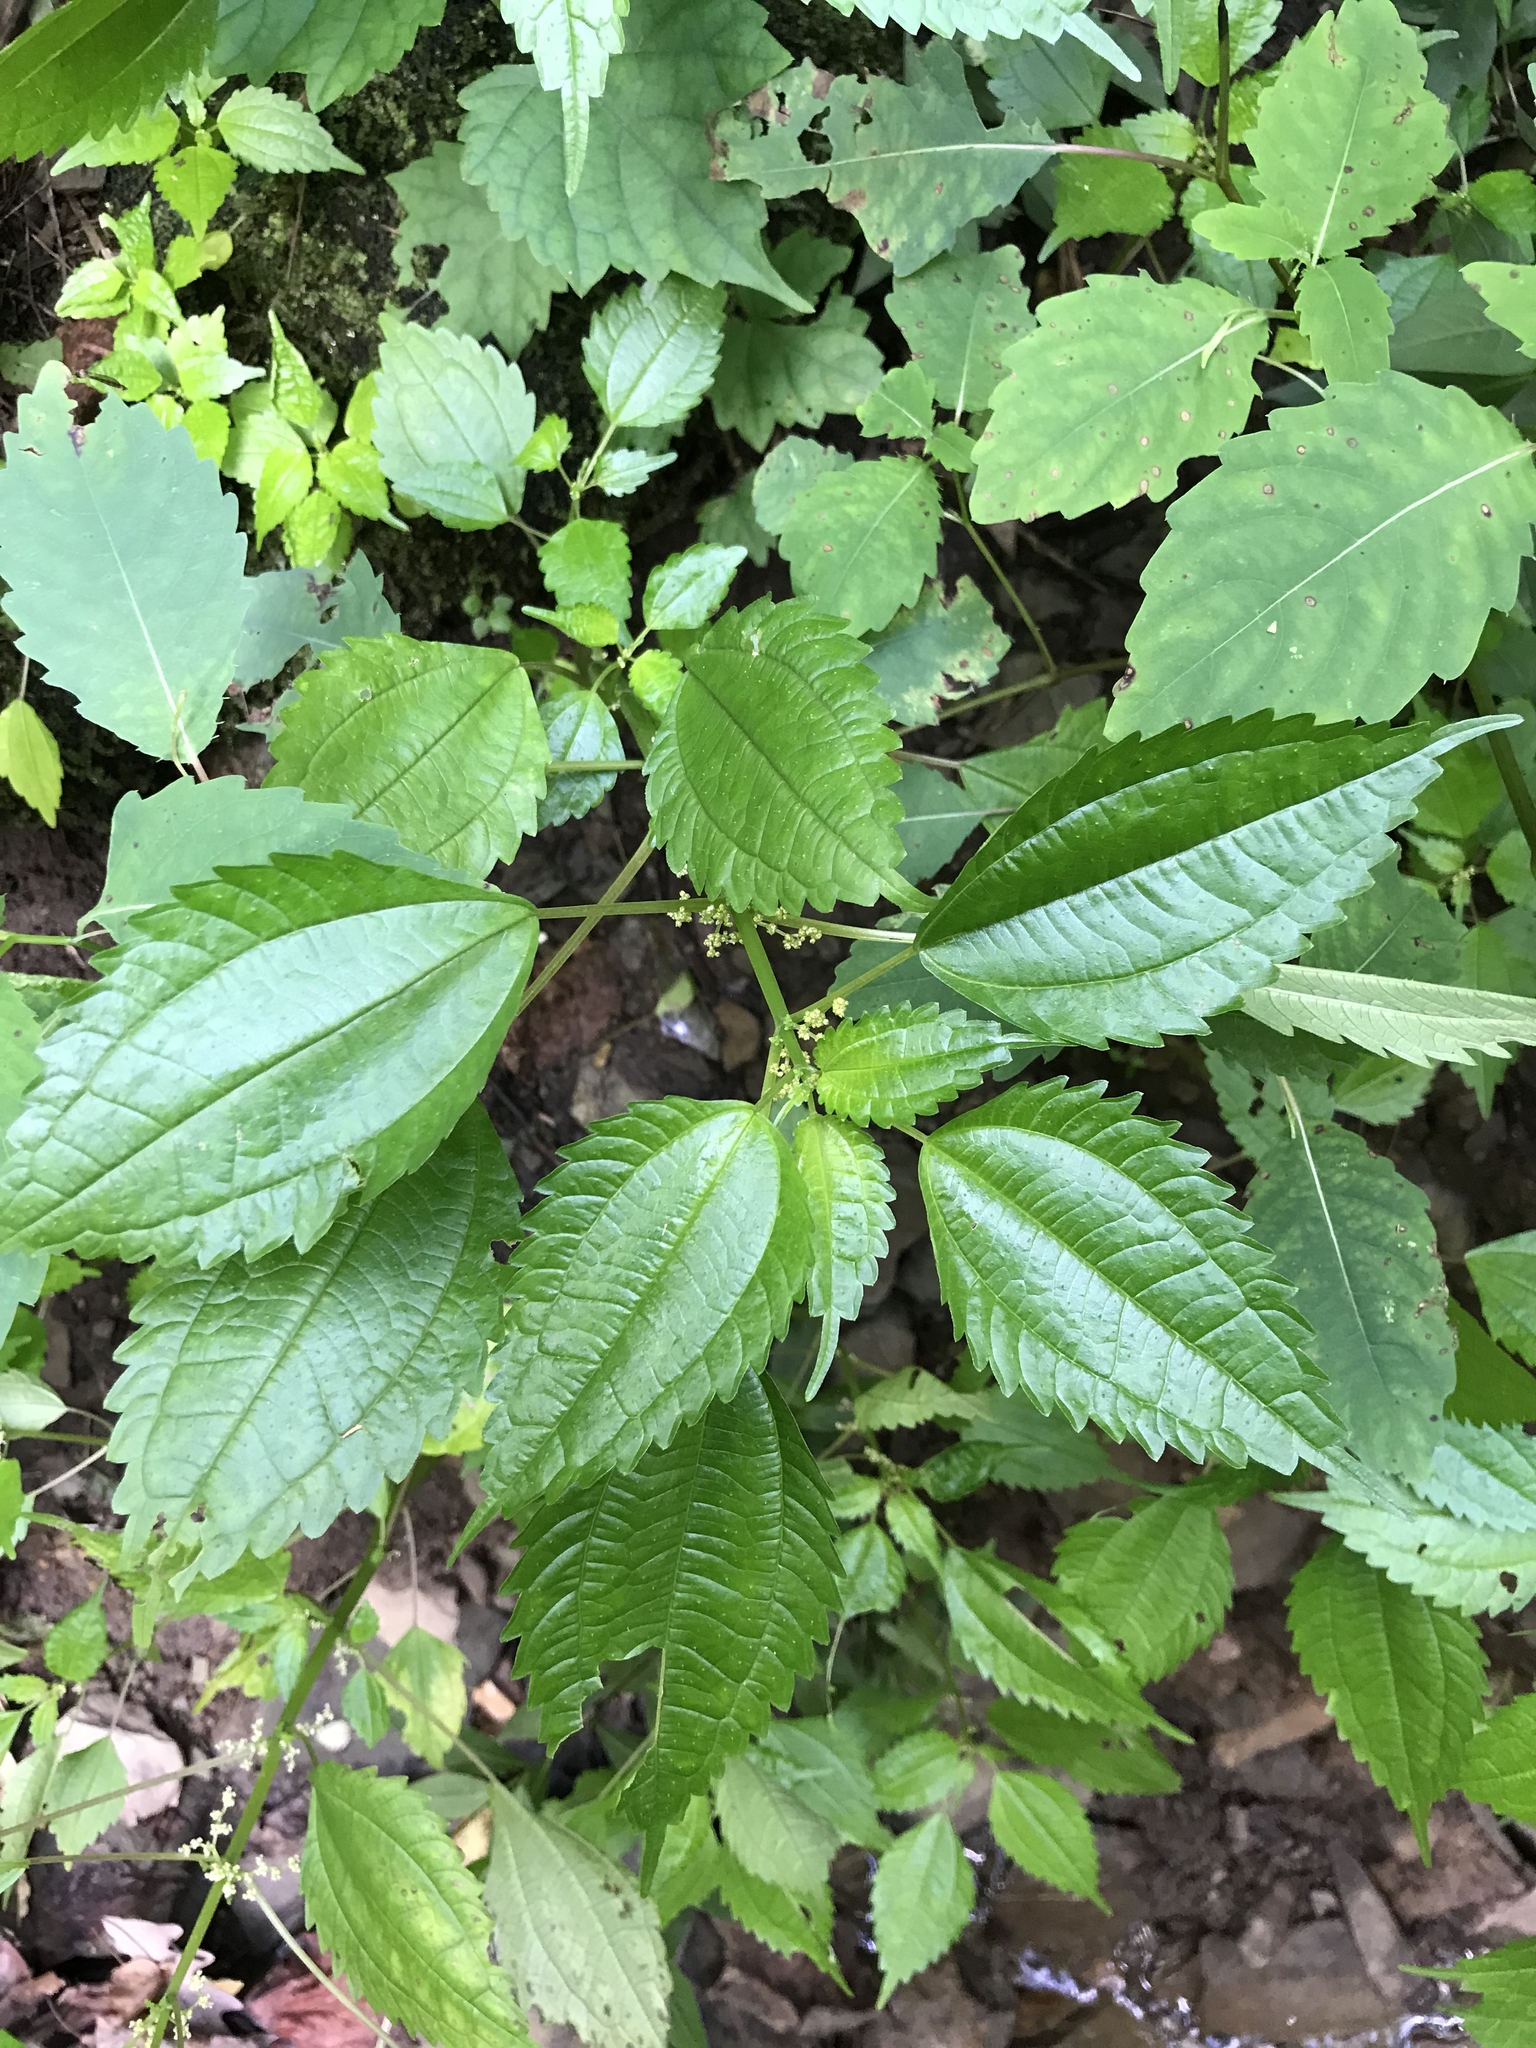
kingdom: Plantae
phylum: Tracheophyta
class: Magnoliopsida
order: Rosales
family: Urticaceae
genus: Pilea
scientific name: Pilea pumila
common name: Clearweed
